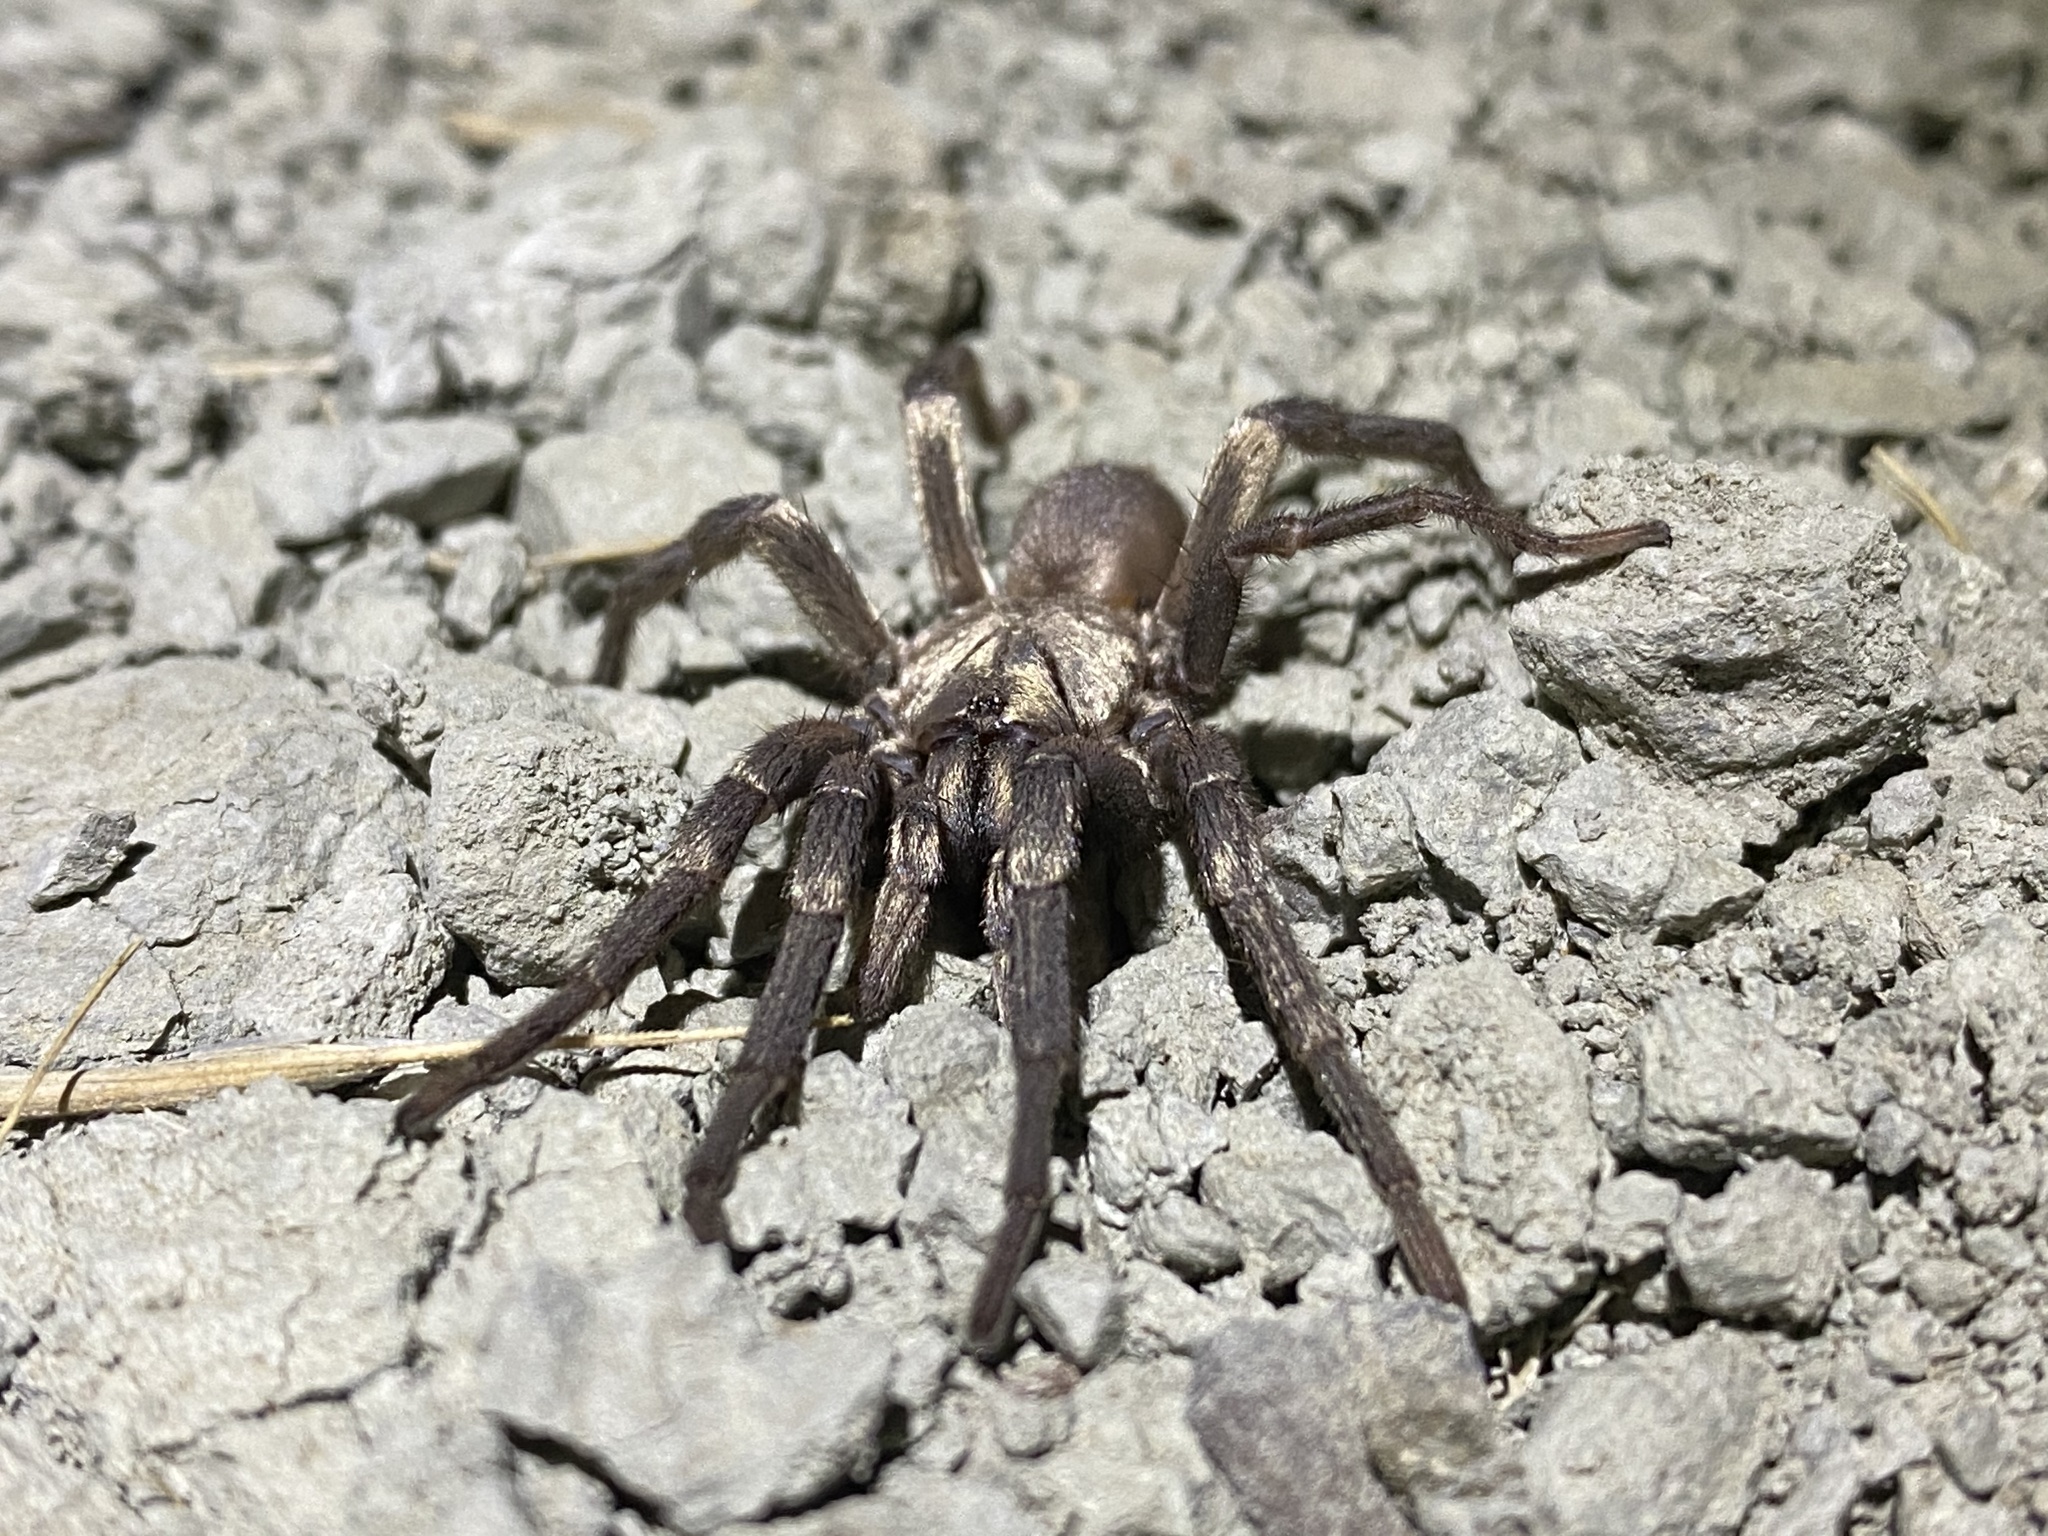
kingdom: Animalia
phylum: Arthropoda
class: Arachnida
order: Araneae
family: Nemesiidae
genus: Calisoga
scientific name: Calisoga longitarsis
